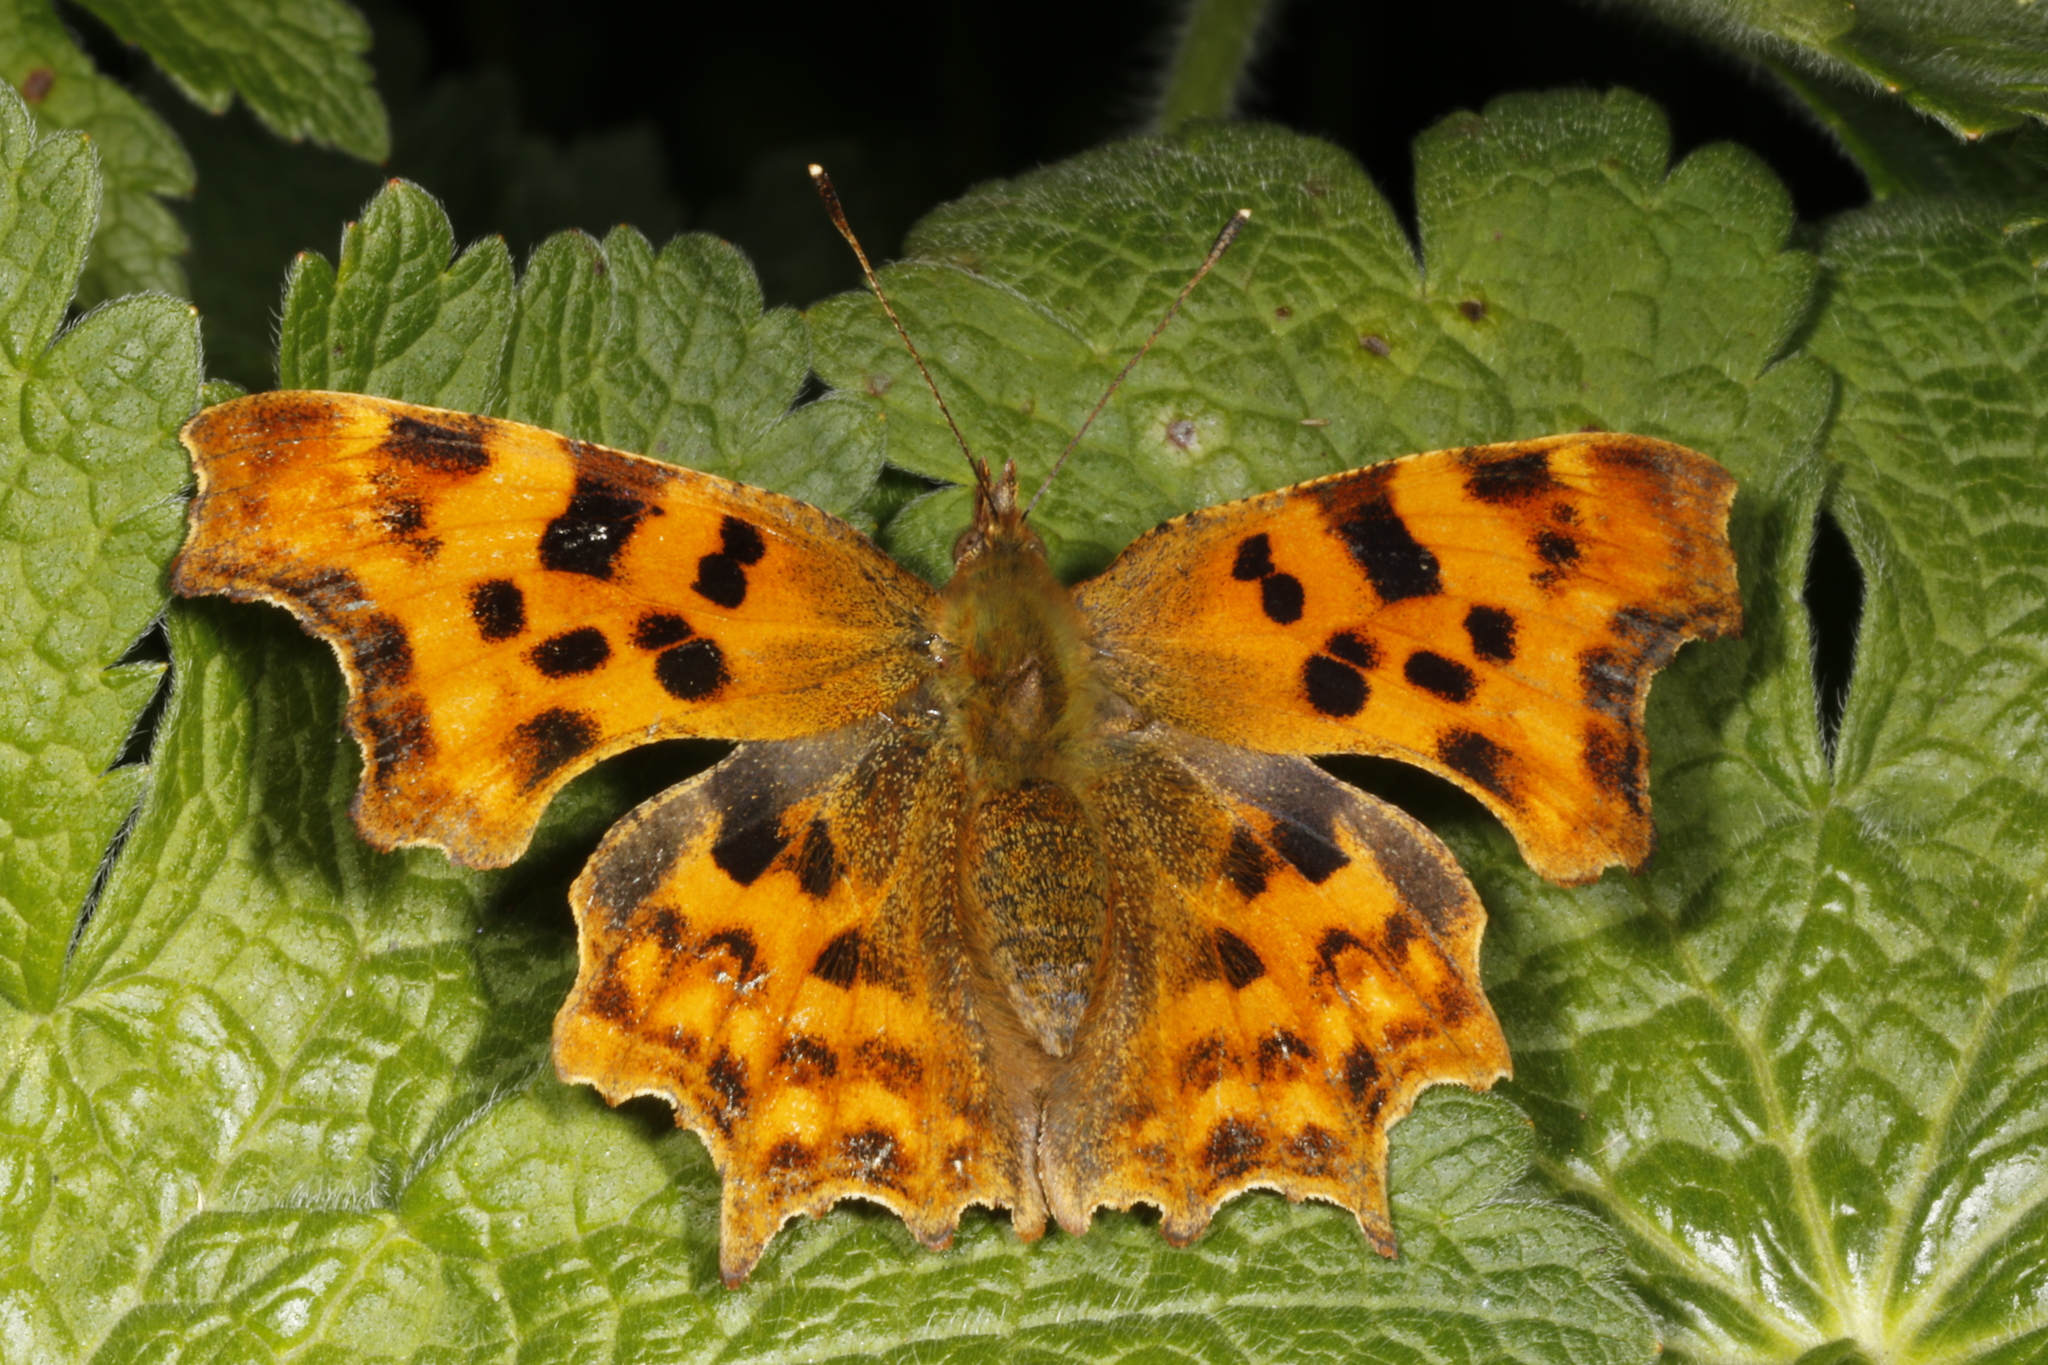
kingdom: Animalia
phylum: Arthropoda
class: Insecta
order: Lepidoptera
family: Nymphalidae
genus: Polygonia
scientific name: Polygonia c-album
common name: Comma
